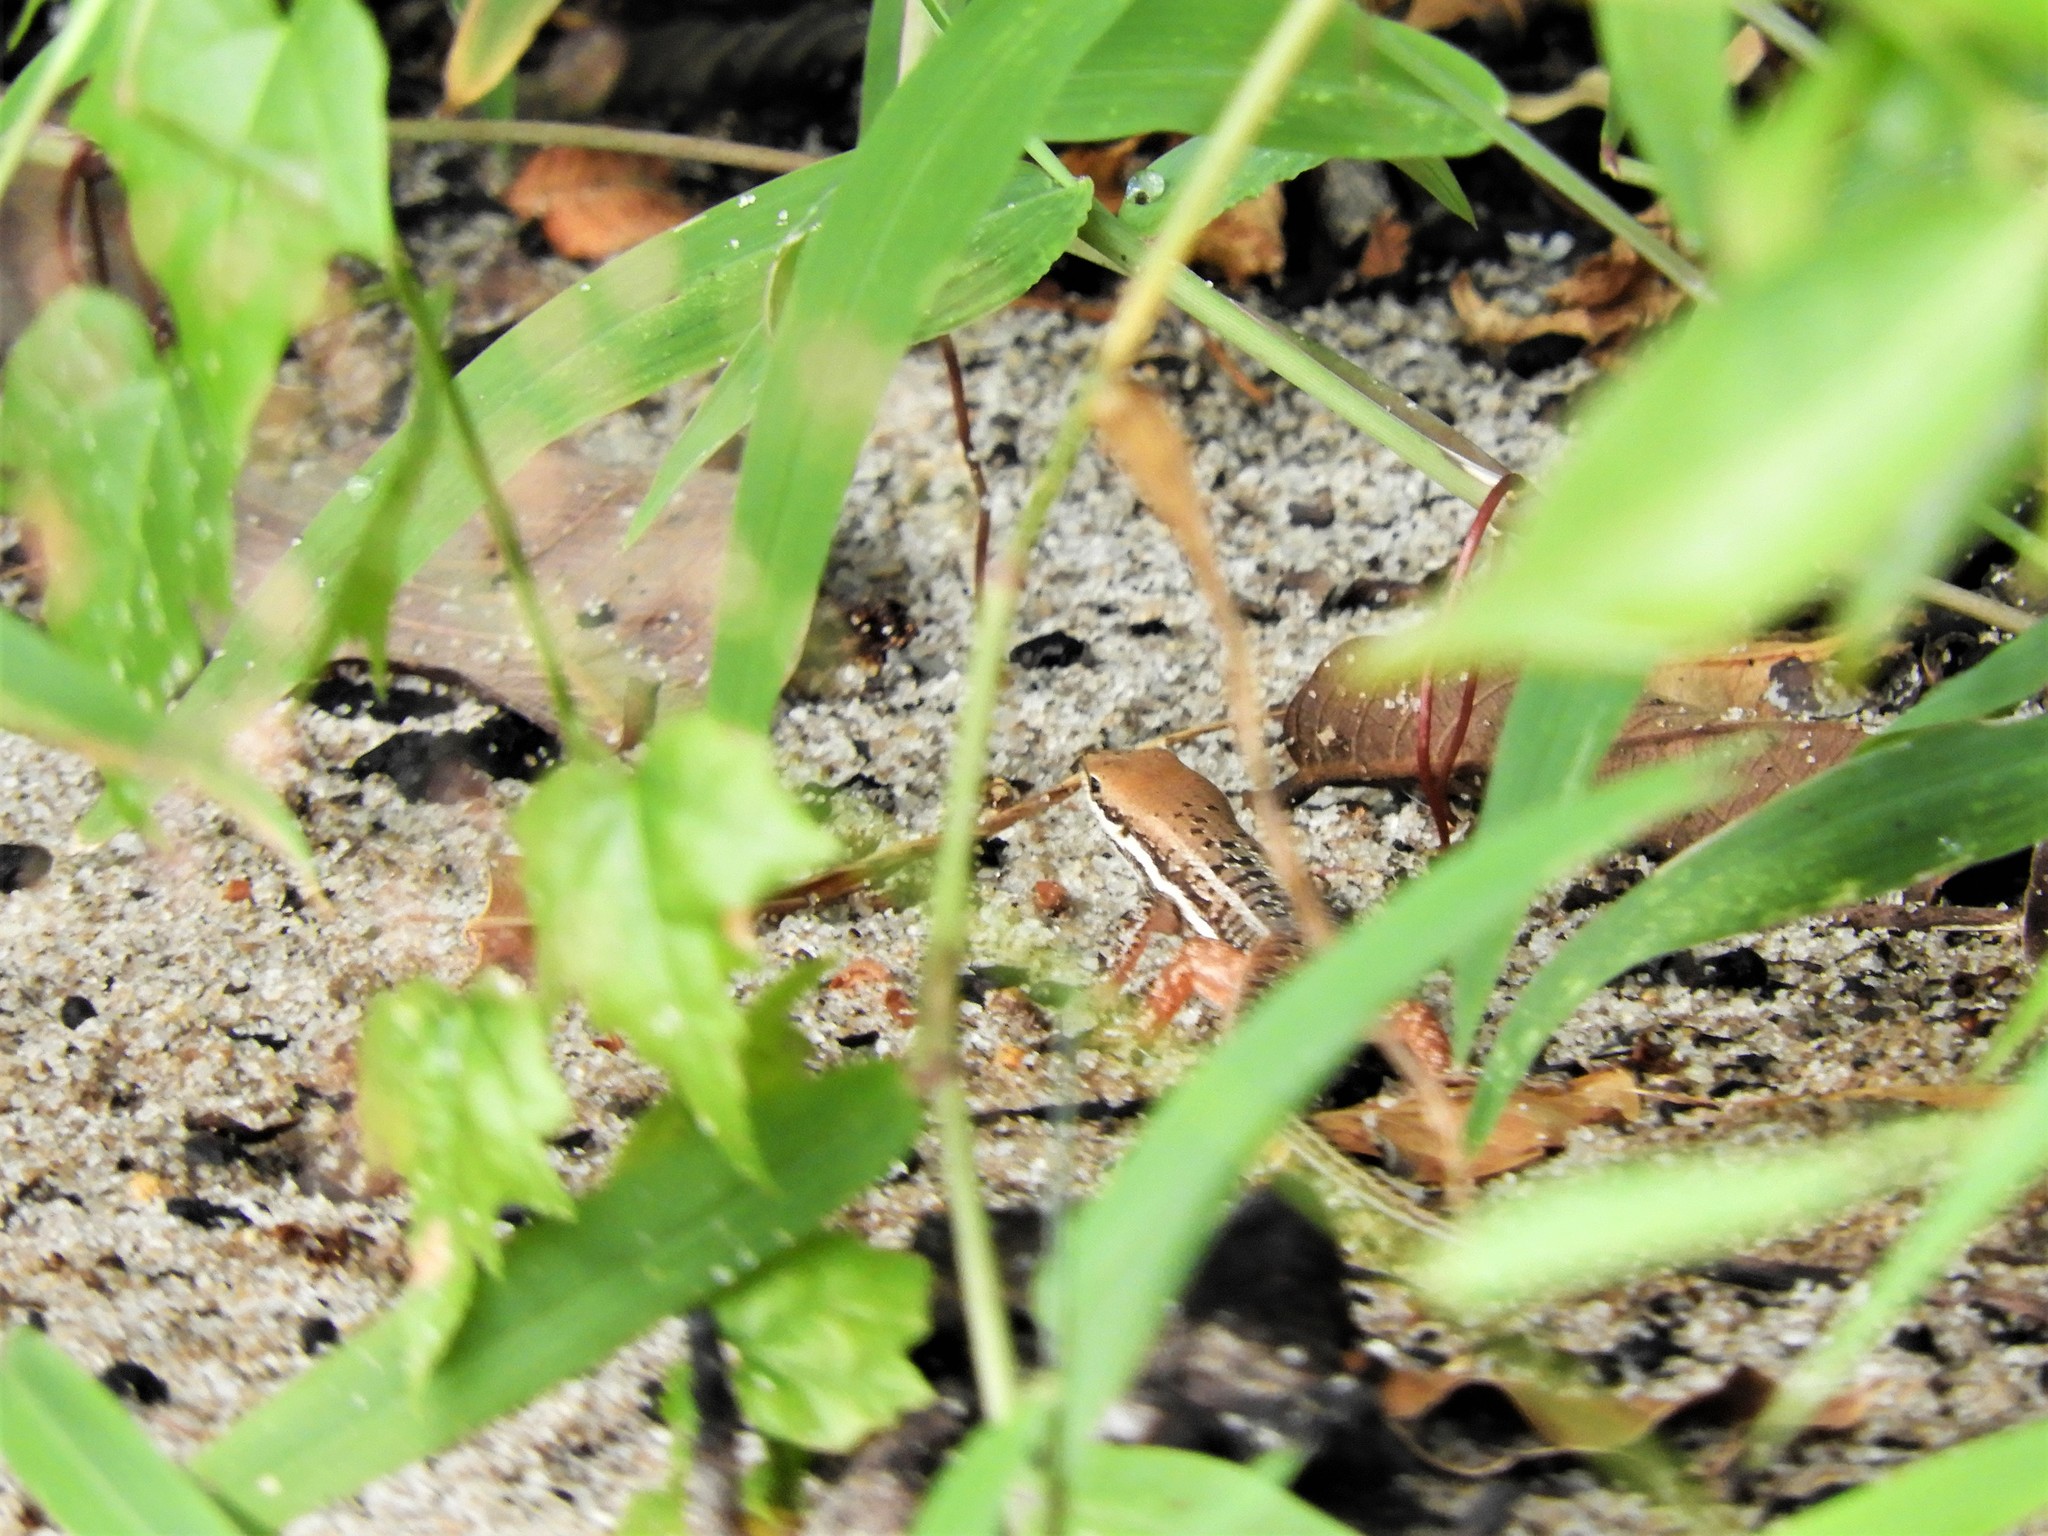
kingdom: Animalia
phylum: Chordata
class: Squamata
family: Scincidae
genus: Trachylepis
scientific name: Trachylepis varia
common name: Eastern variable skink
